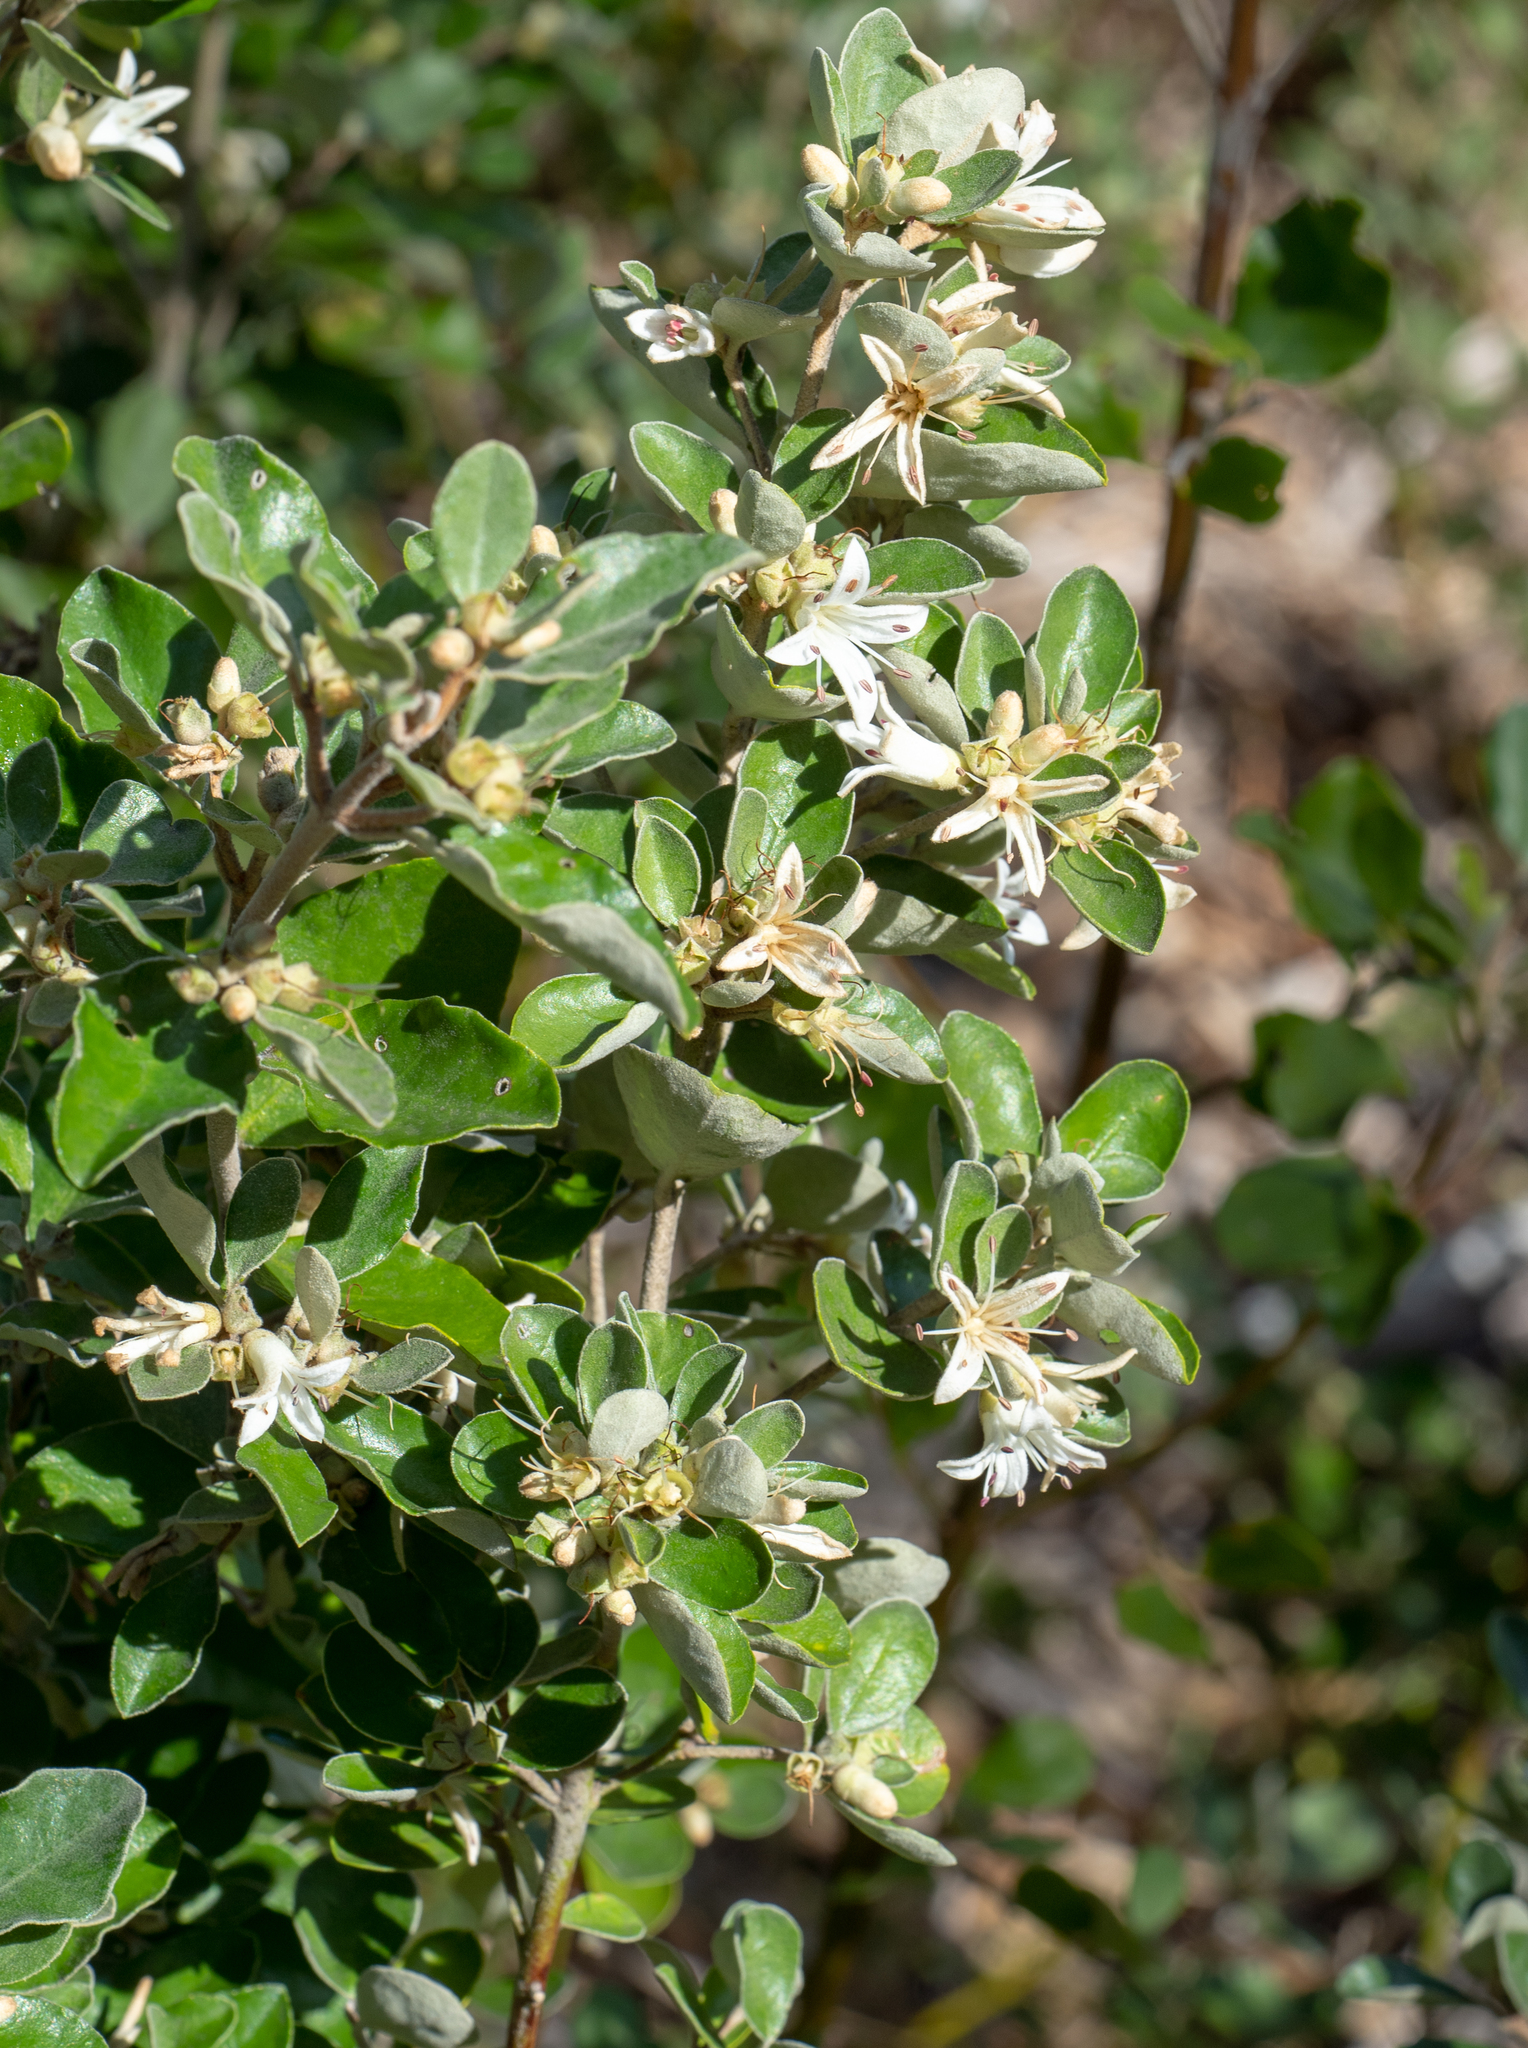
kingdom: Plantae
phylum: Tracheophyta
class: Magnoliopsida
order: Sapindales
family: Rutaceae
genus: Correa
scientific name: Correa alba
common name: White correa
